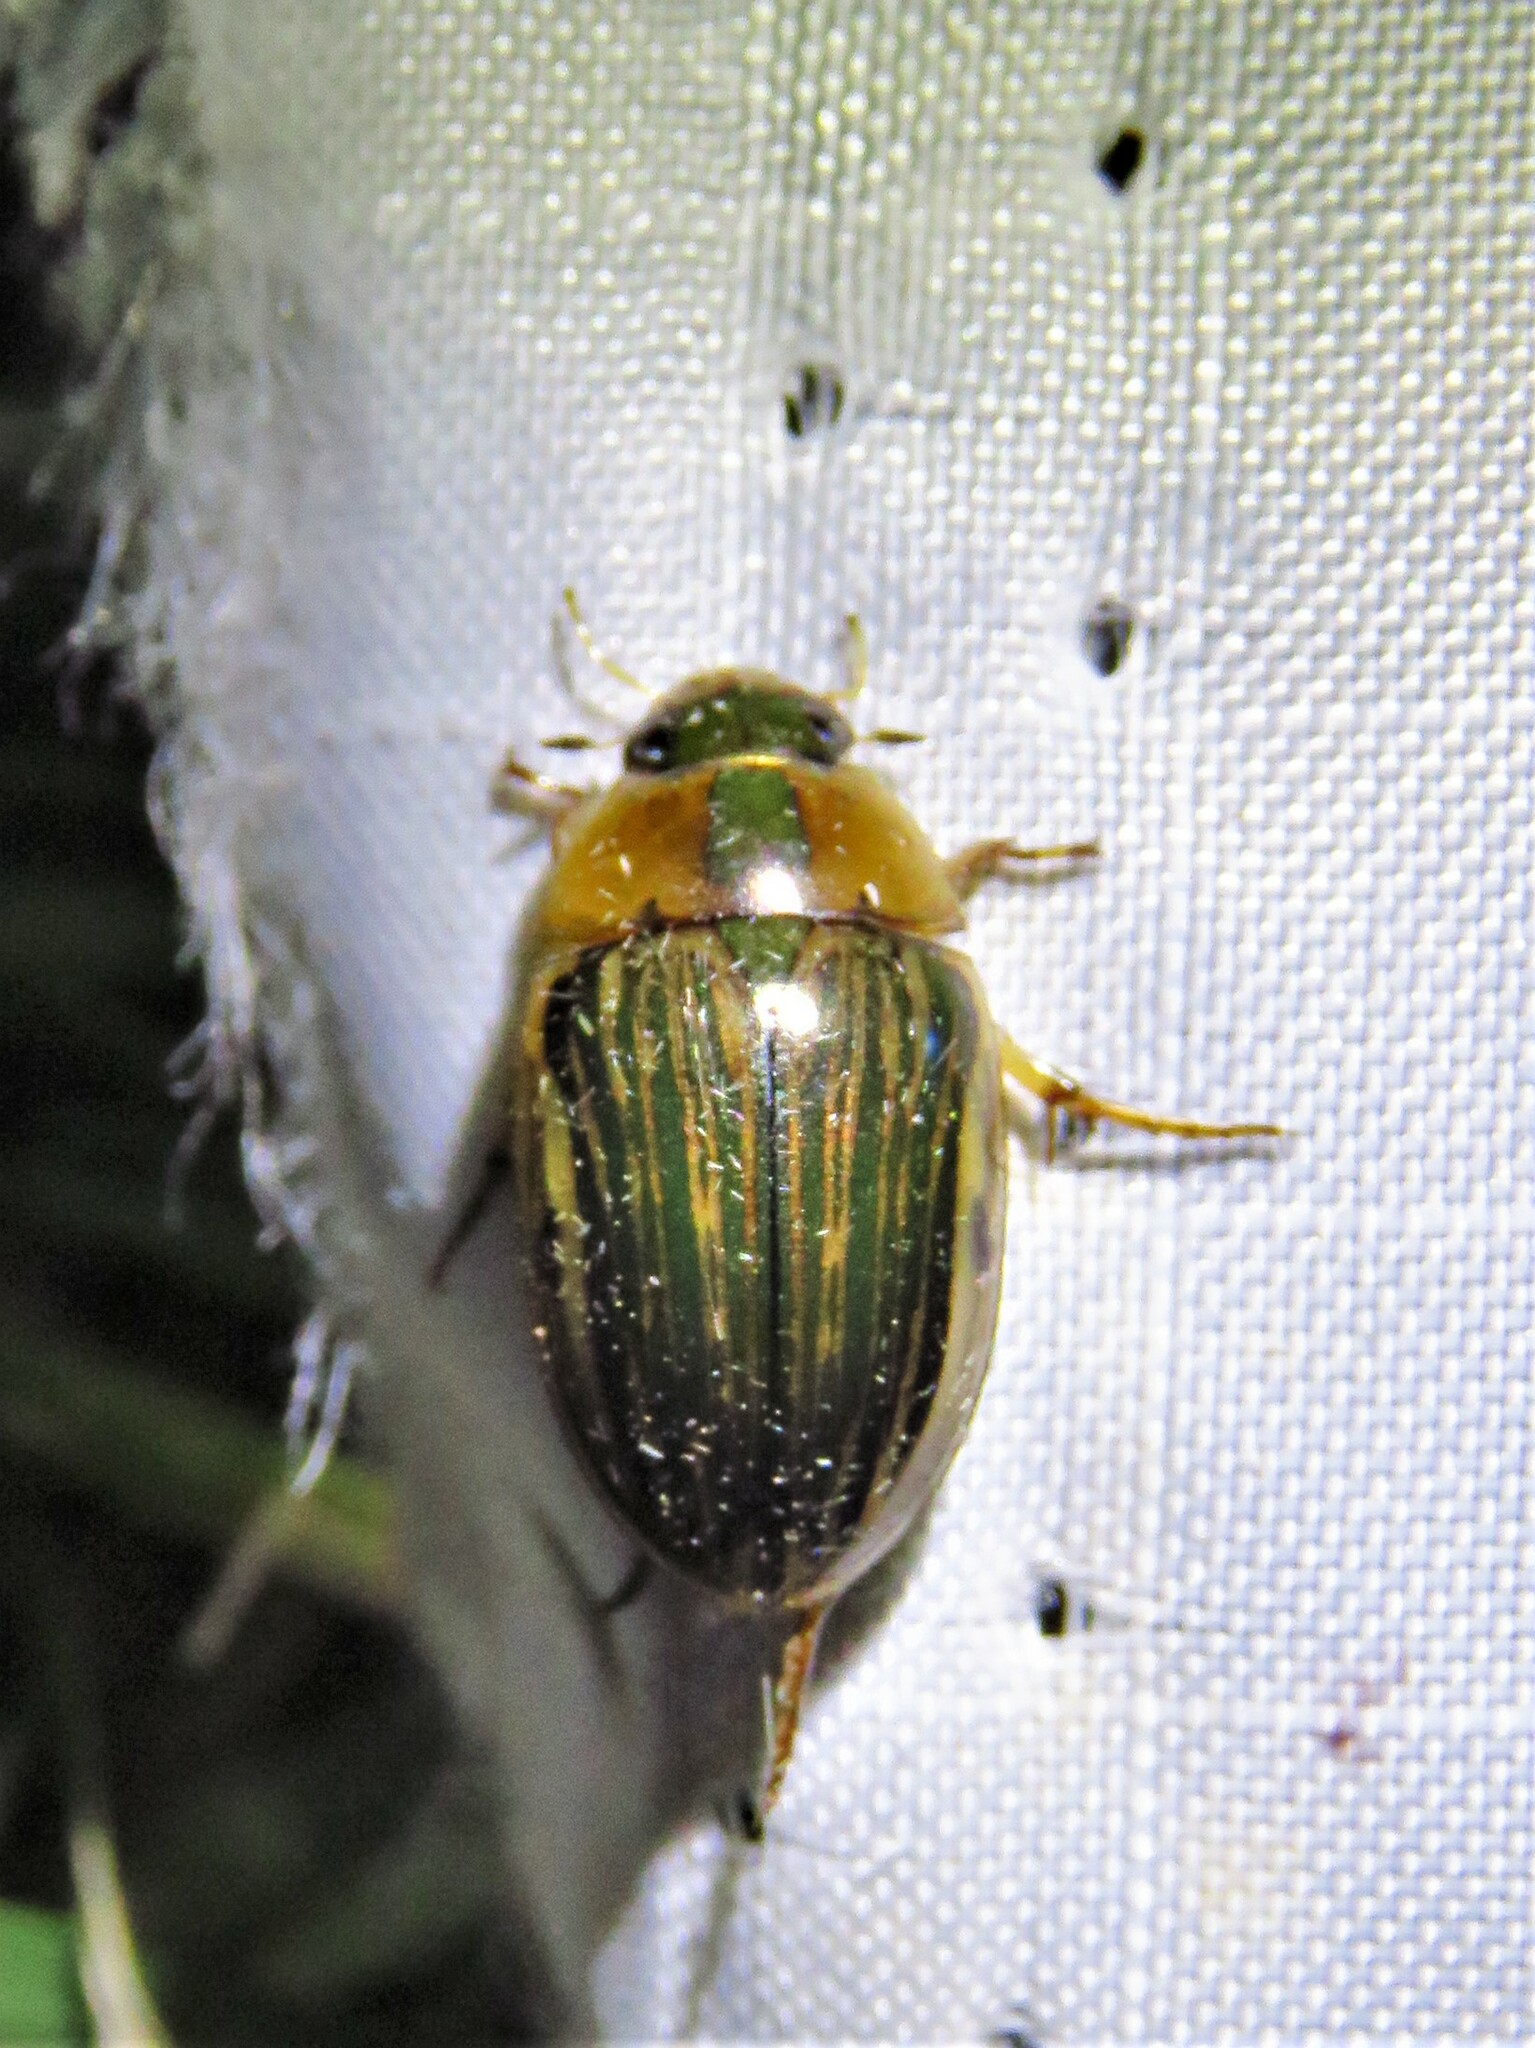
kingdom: Animalia
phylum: Arthropoda
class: Insecta
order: Coleoptera
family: Hydrophilidae
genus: Tropisternus
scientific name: Tropisternus collaris
